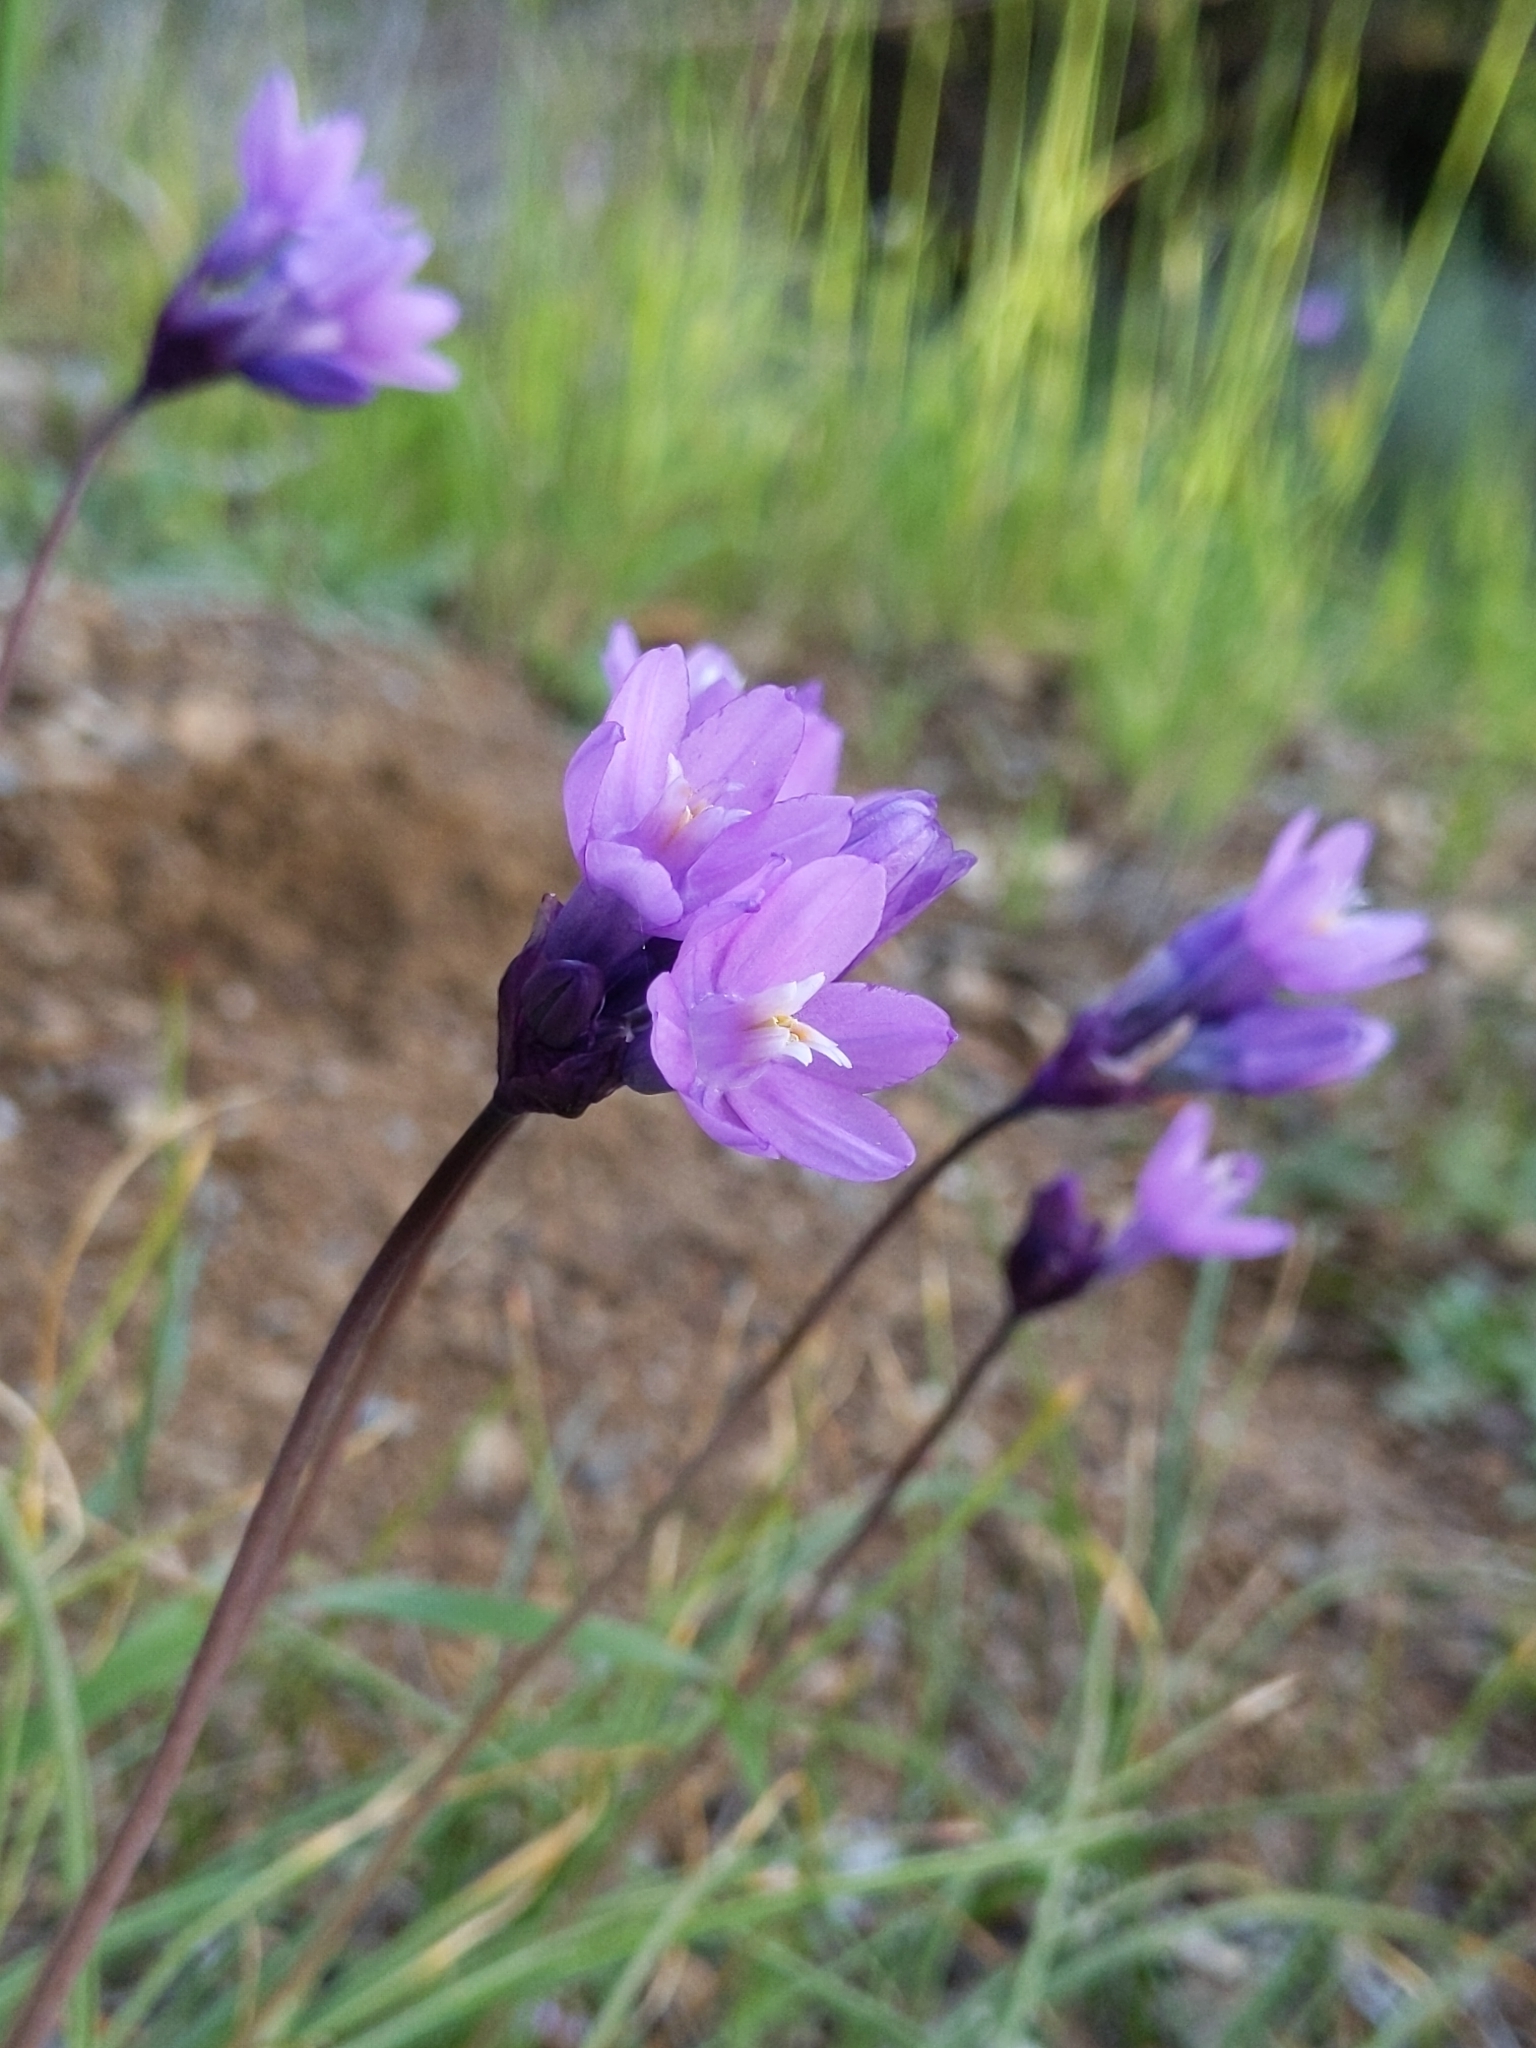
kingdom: Plantae
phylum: Tracheophyta
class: Liliopsida
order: Asparagales
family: Asparagaceae
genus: Dipterostemon
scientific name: Dipterostemon capitatus
